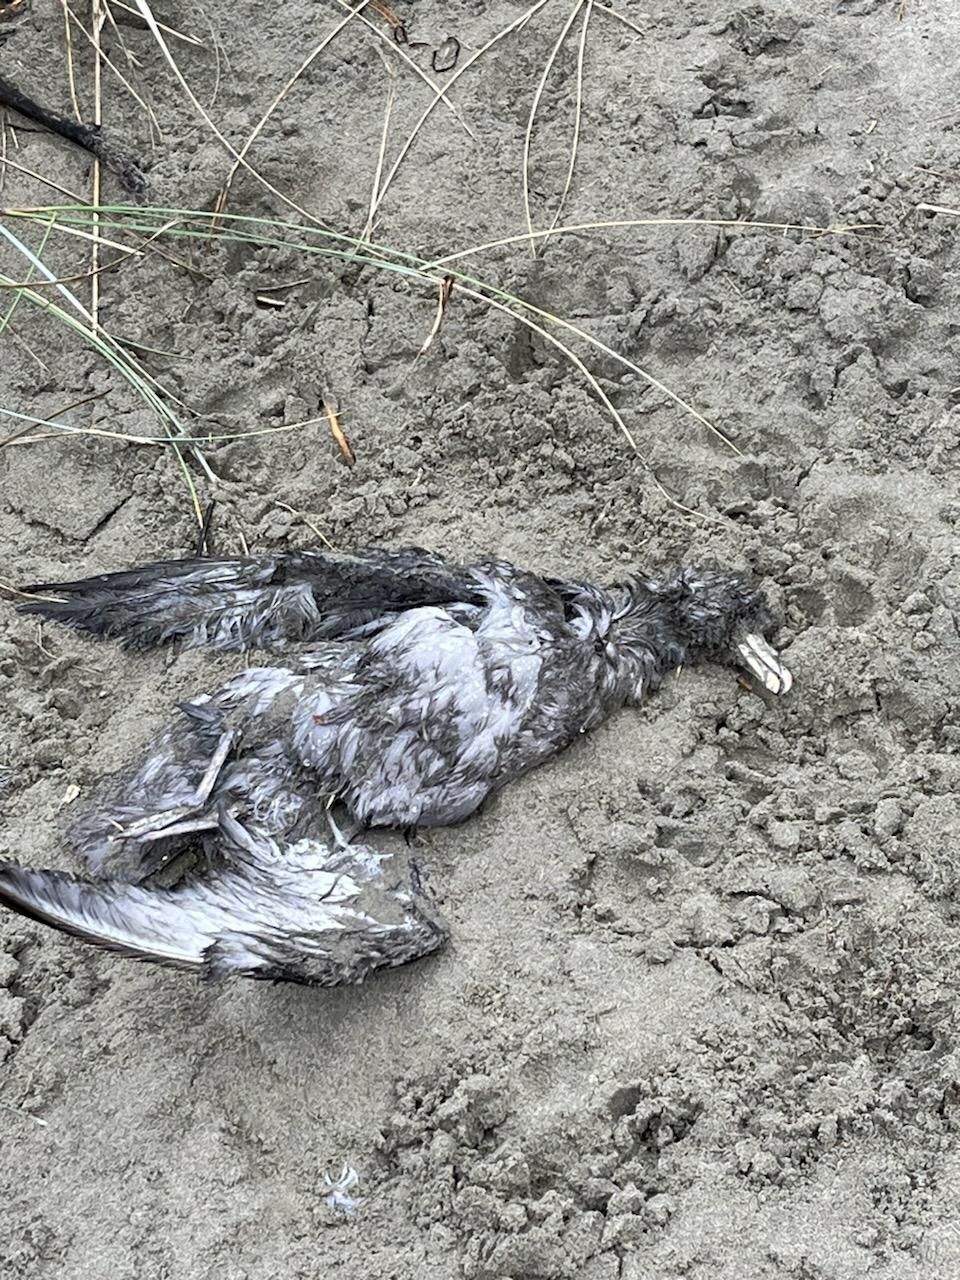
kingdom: Animalia
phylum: Chordata
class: Aves
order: Procellariiformes
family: Procellariidae
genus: Fulmarus
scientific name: Fulmarus glacialis
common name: Northern fulmar
